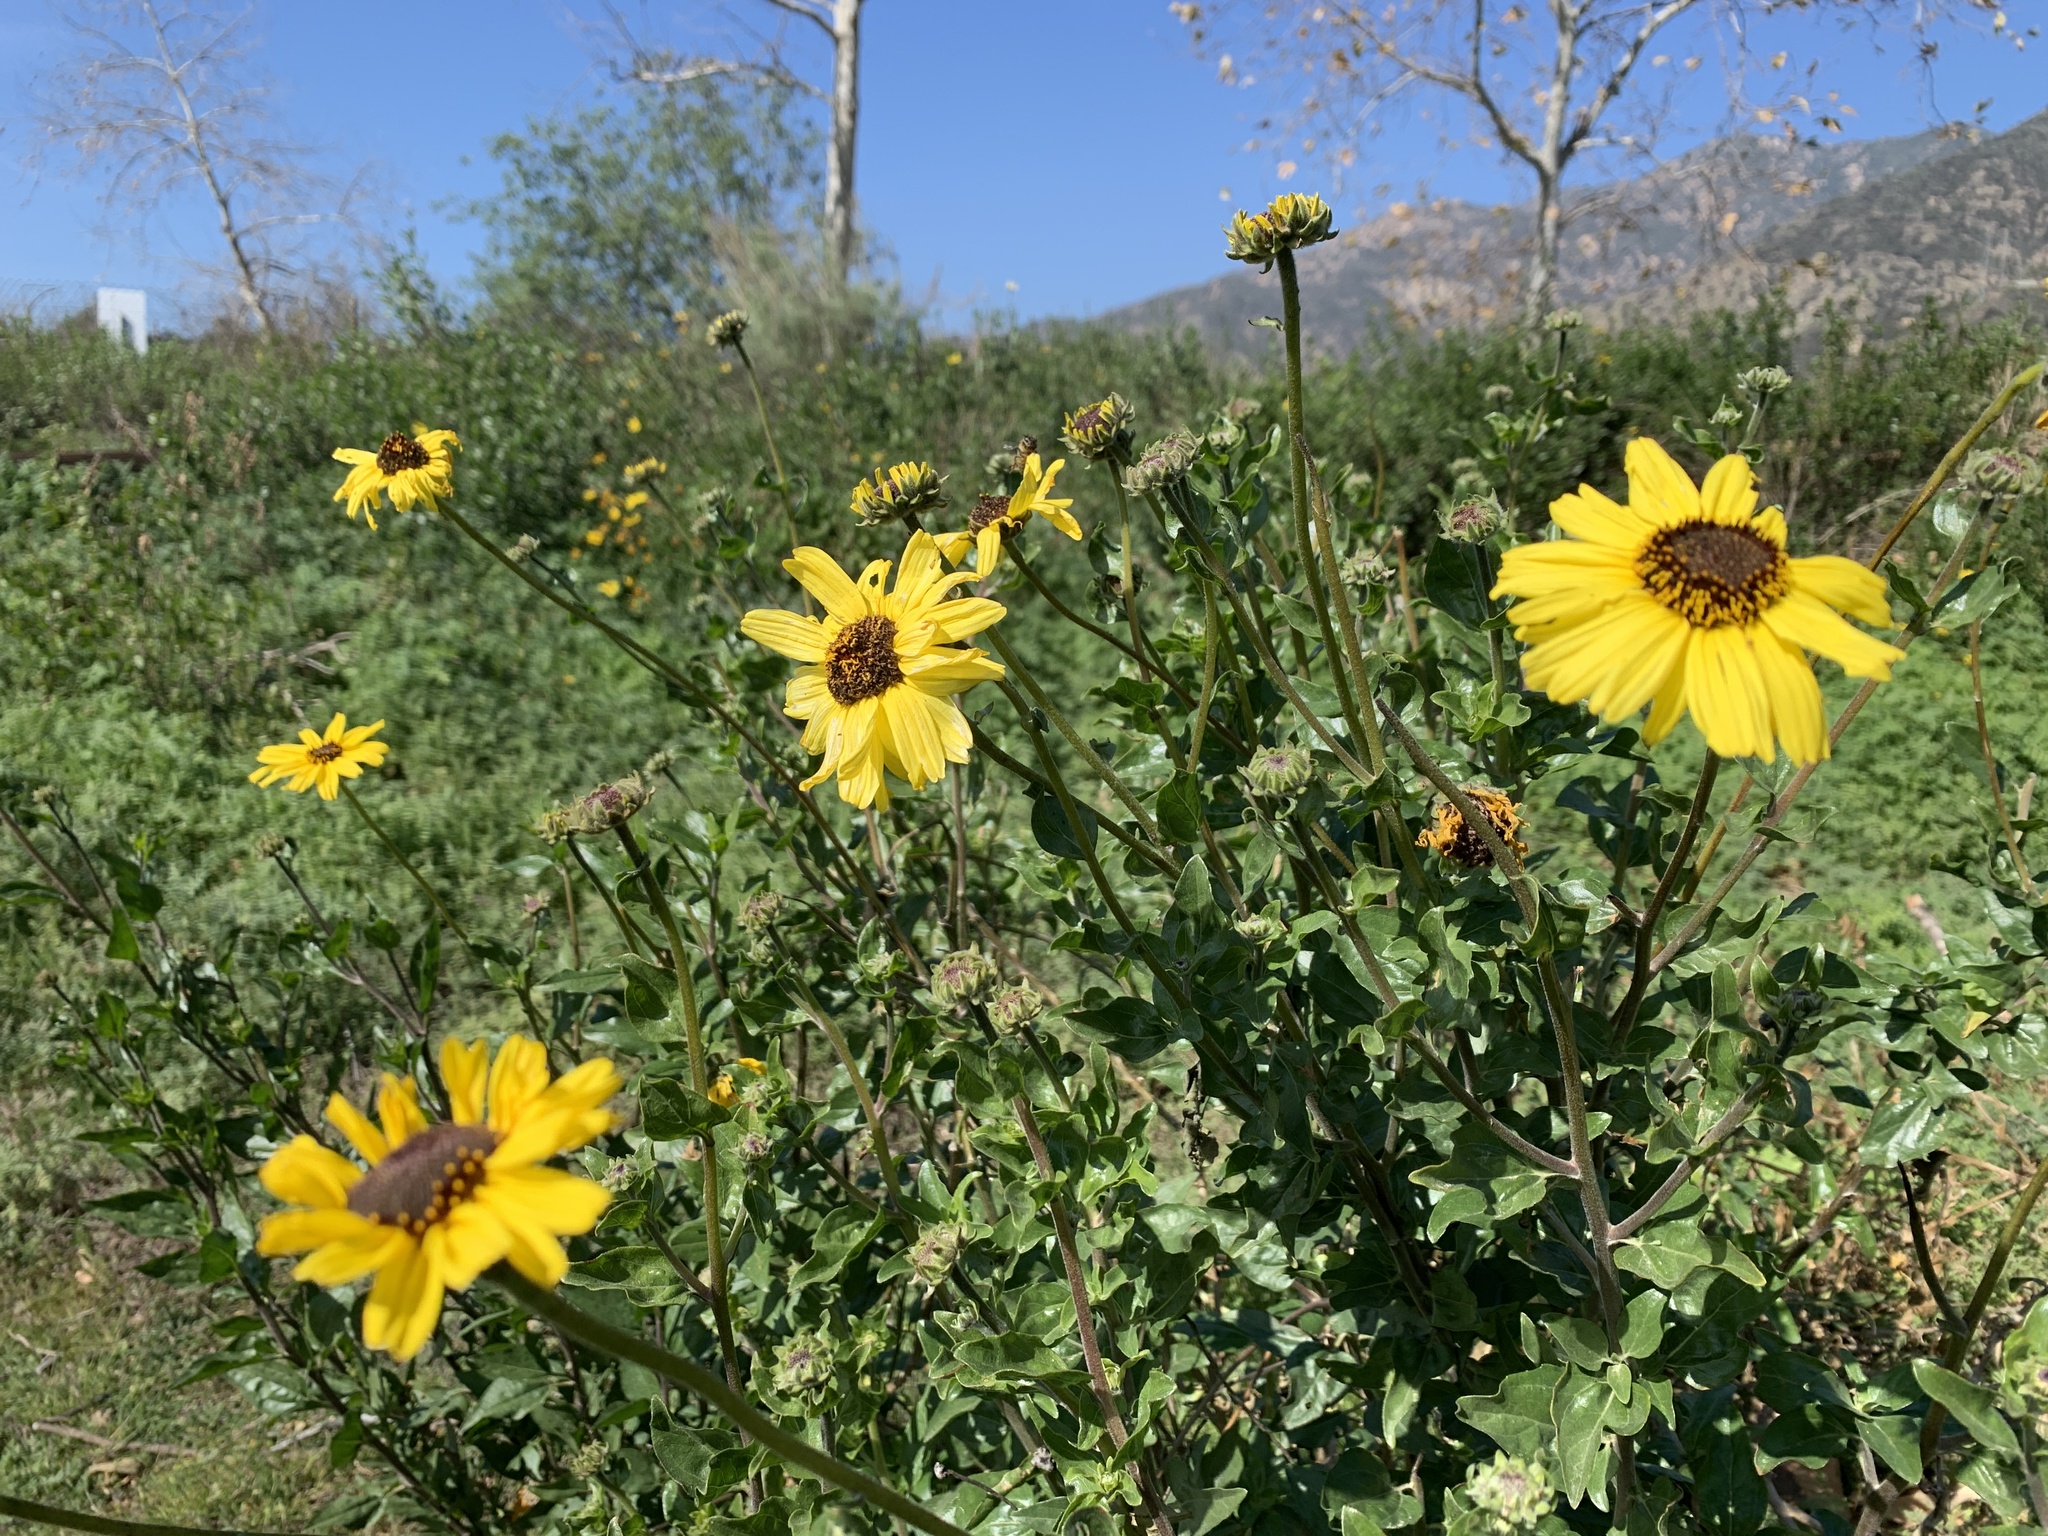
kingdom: Plantae
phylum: Tracheophyta
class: Magnoliopsida
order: Asterales
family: Asteraceae
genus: Encelia
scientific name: Encelia californica
